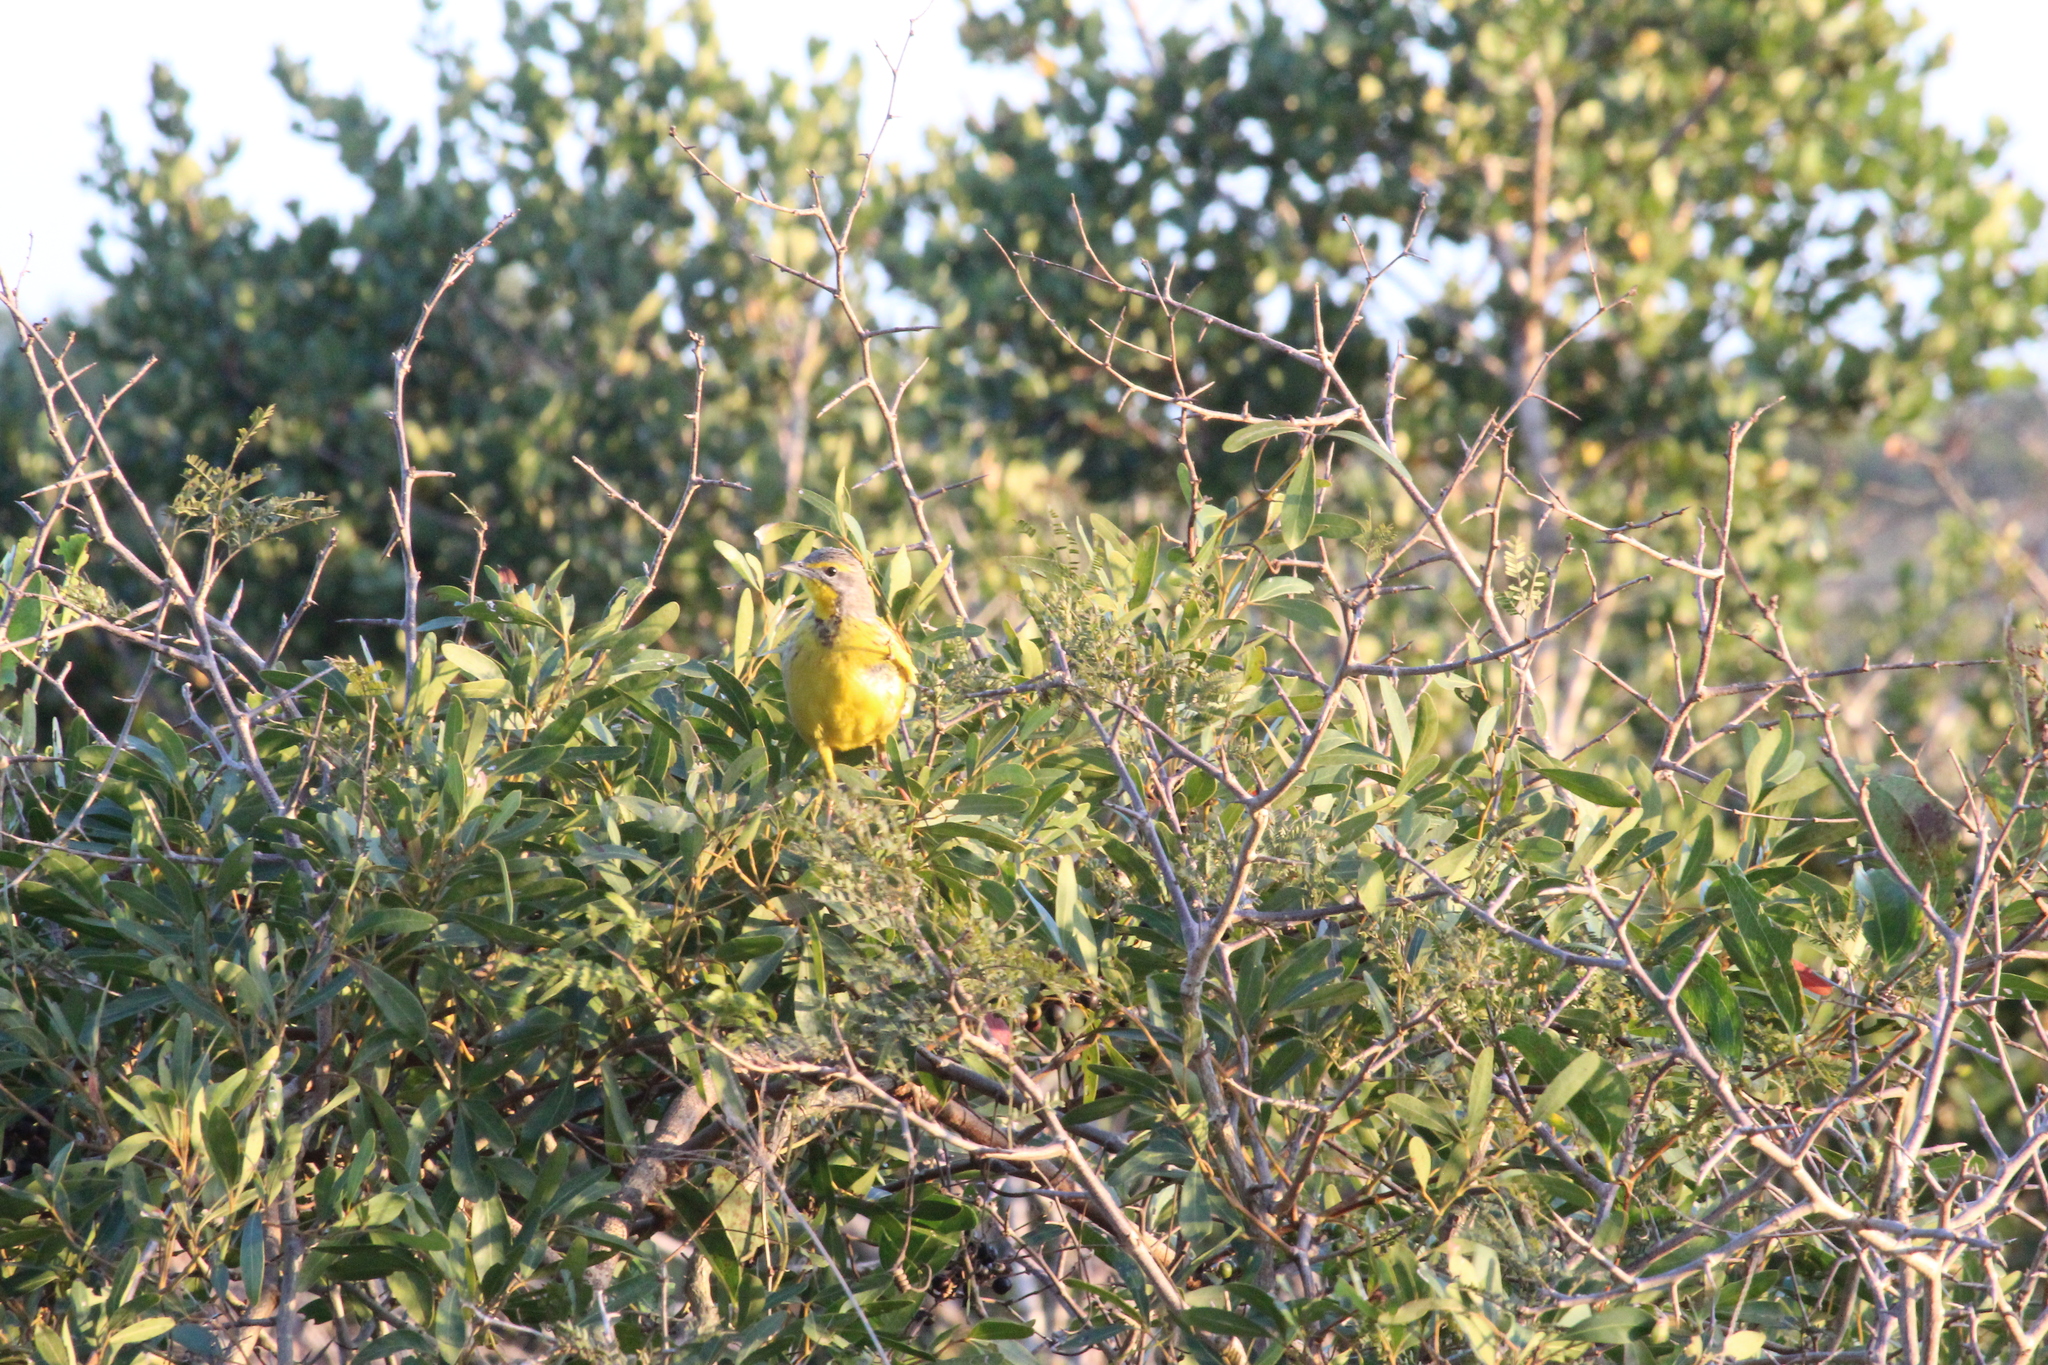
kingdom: Animalia
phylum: Chordata
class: Aves
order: Passeriformes
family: Motacillidae
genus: Macronyx
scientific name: Macronyx croceus
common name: Yellow-throated longclaw
